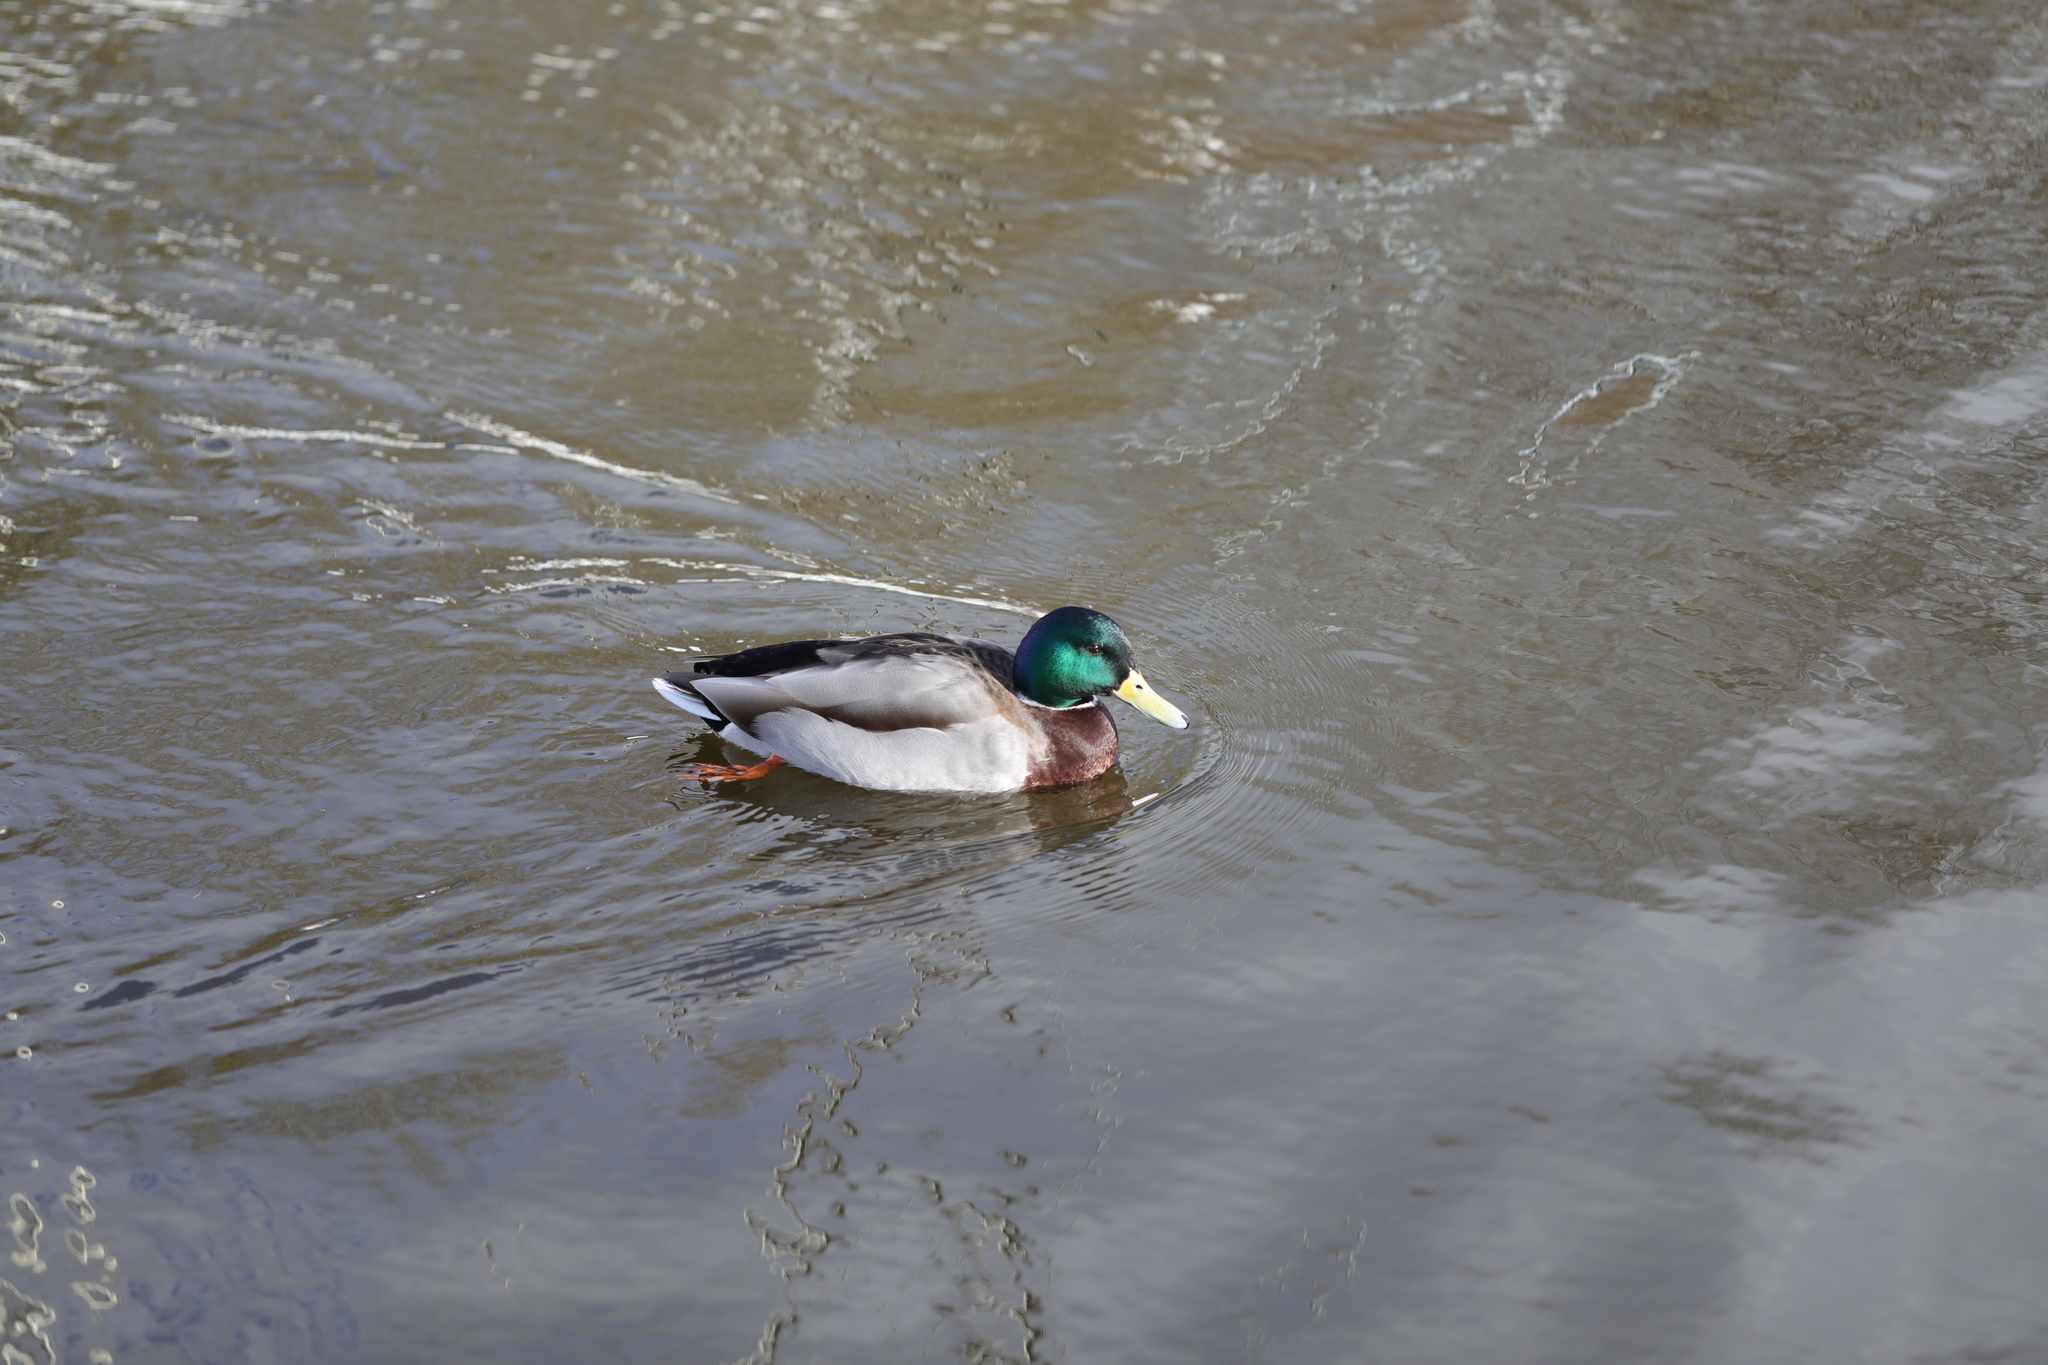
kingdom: Animalia
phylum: Chordata
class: Aves
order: Anseriformes
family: Anatidae
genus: Anas
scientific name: Anas platyrhynchos
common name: Mallard
